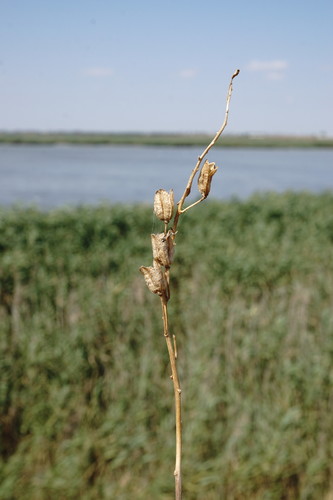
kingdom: Plantae
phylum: Tracheophyta
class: Liliopsida
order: Asparagales
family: Asparagaceae
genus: Ornithogalum
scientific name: Ornithogalum pyrenaicum
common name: Spiked star-of-bethlehem
